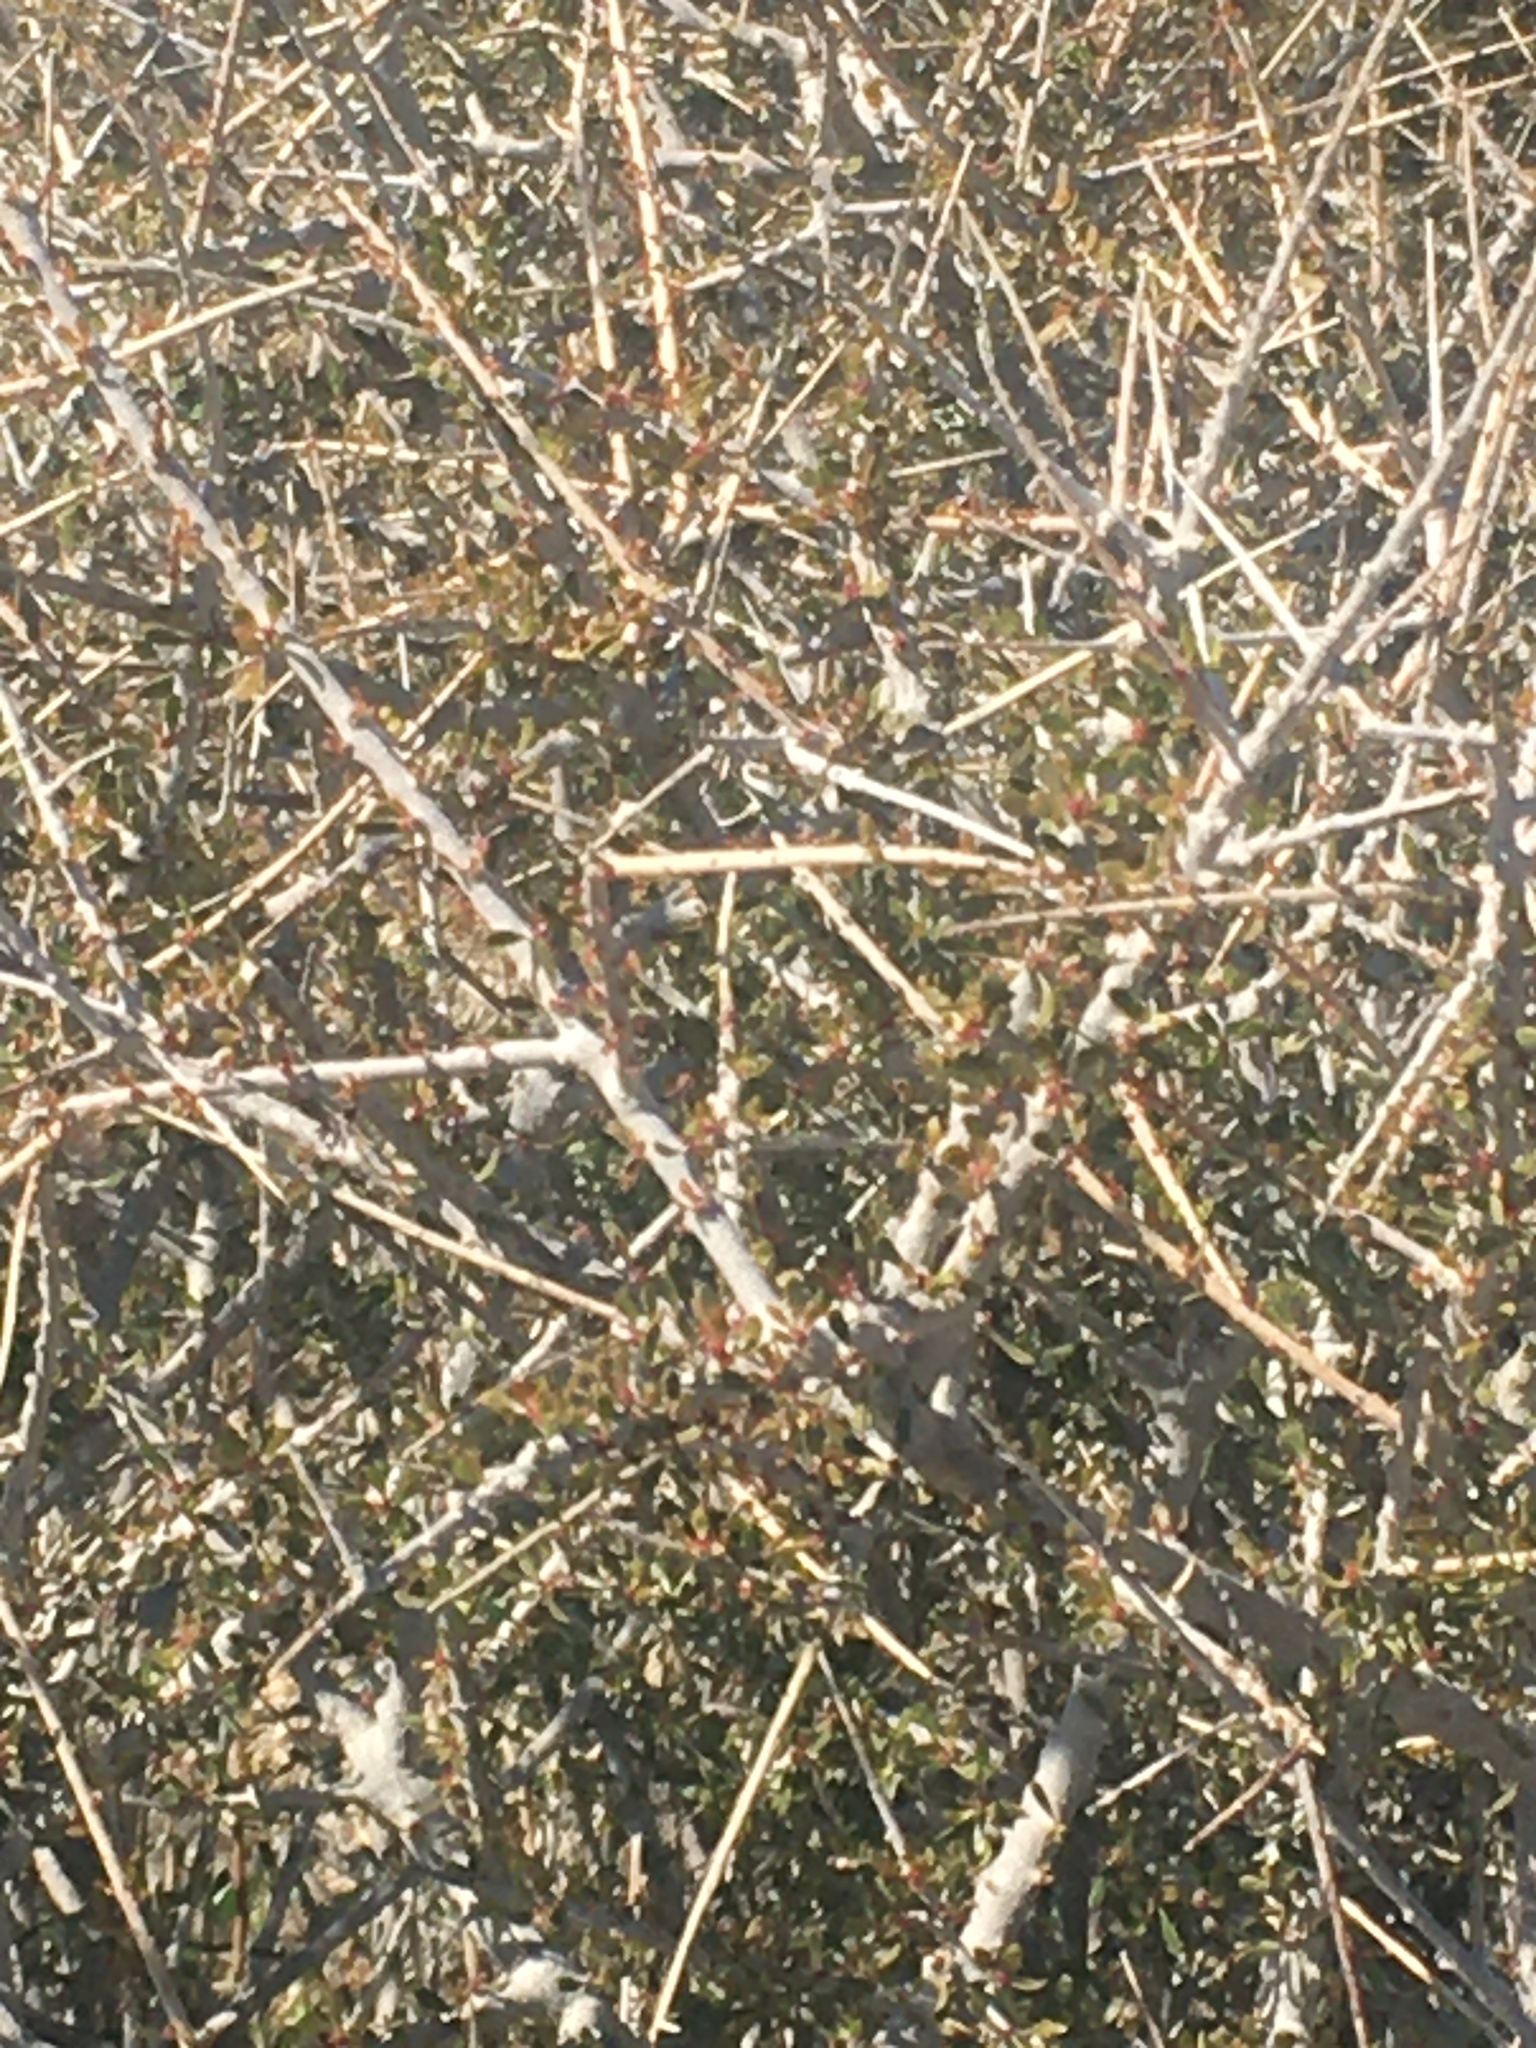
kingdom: Plantae
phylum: Tracheophyta
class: Magnoliopsida
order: Malpighiales
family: Picrodendraceae
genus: Tetracoccus
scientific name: Tetracoccus hallii
